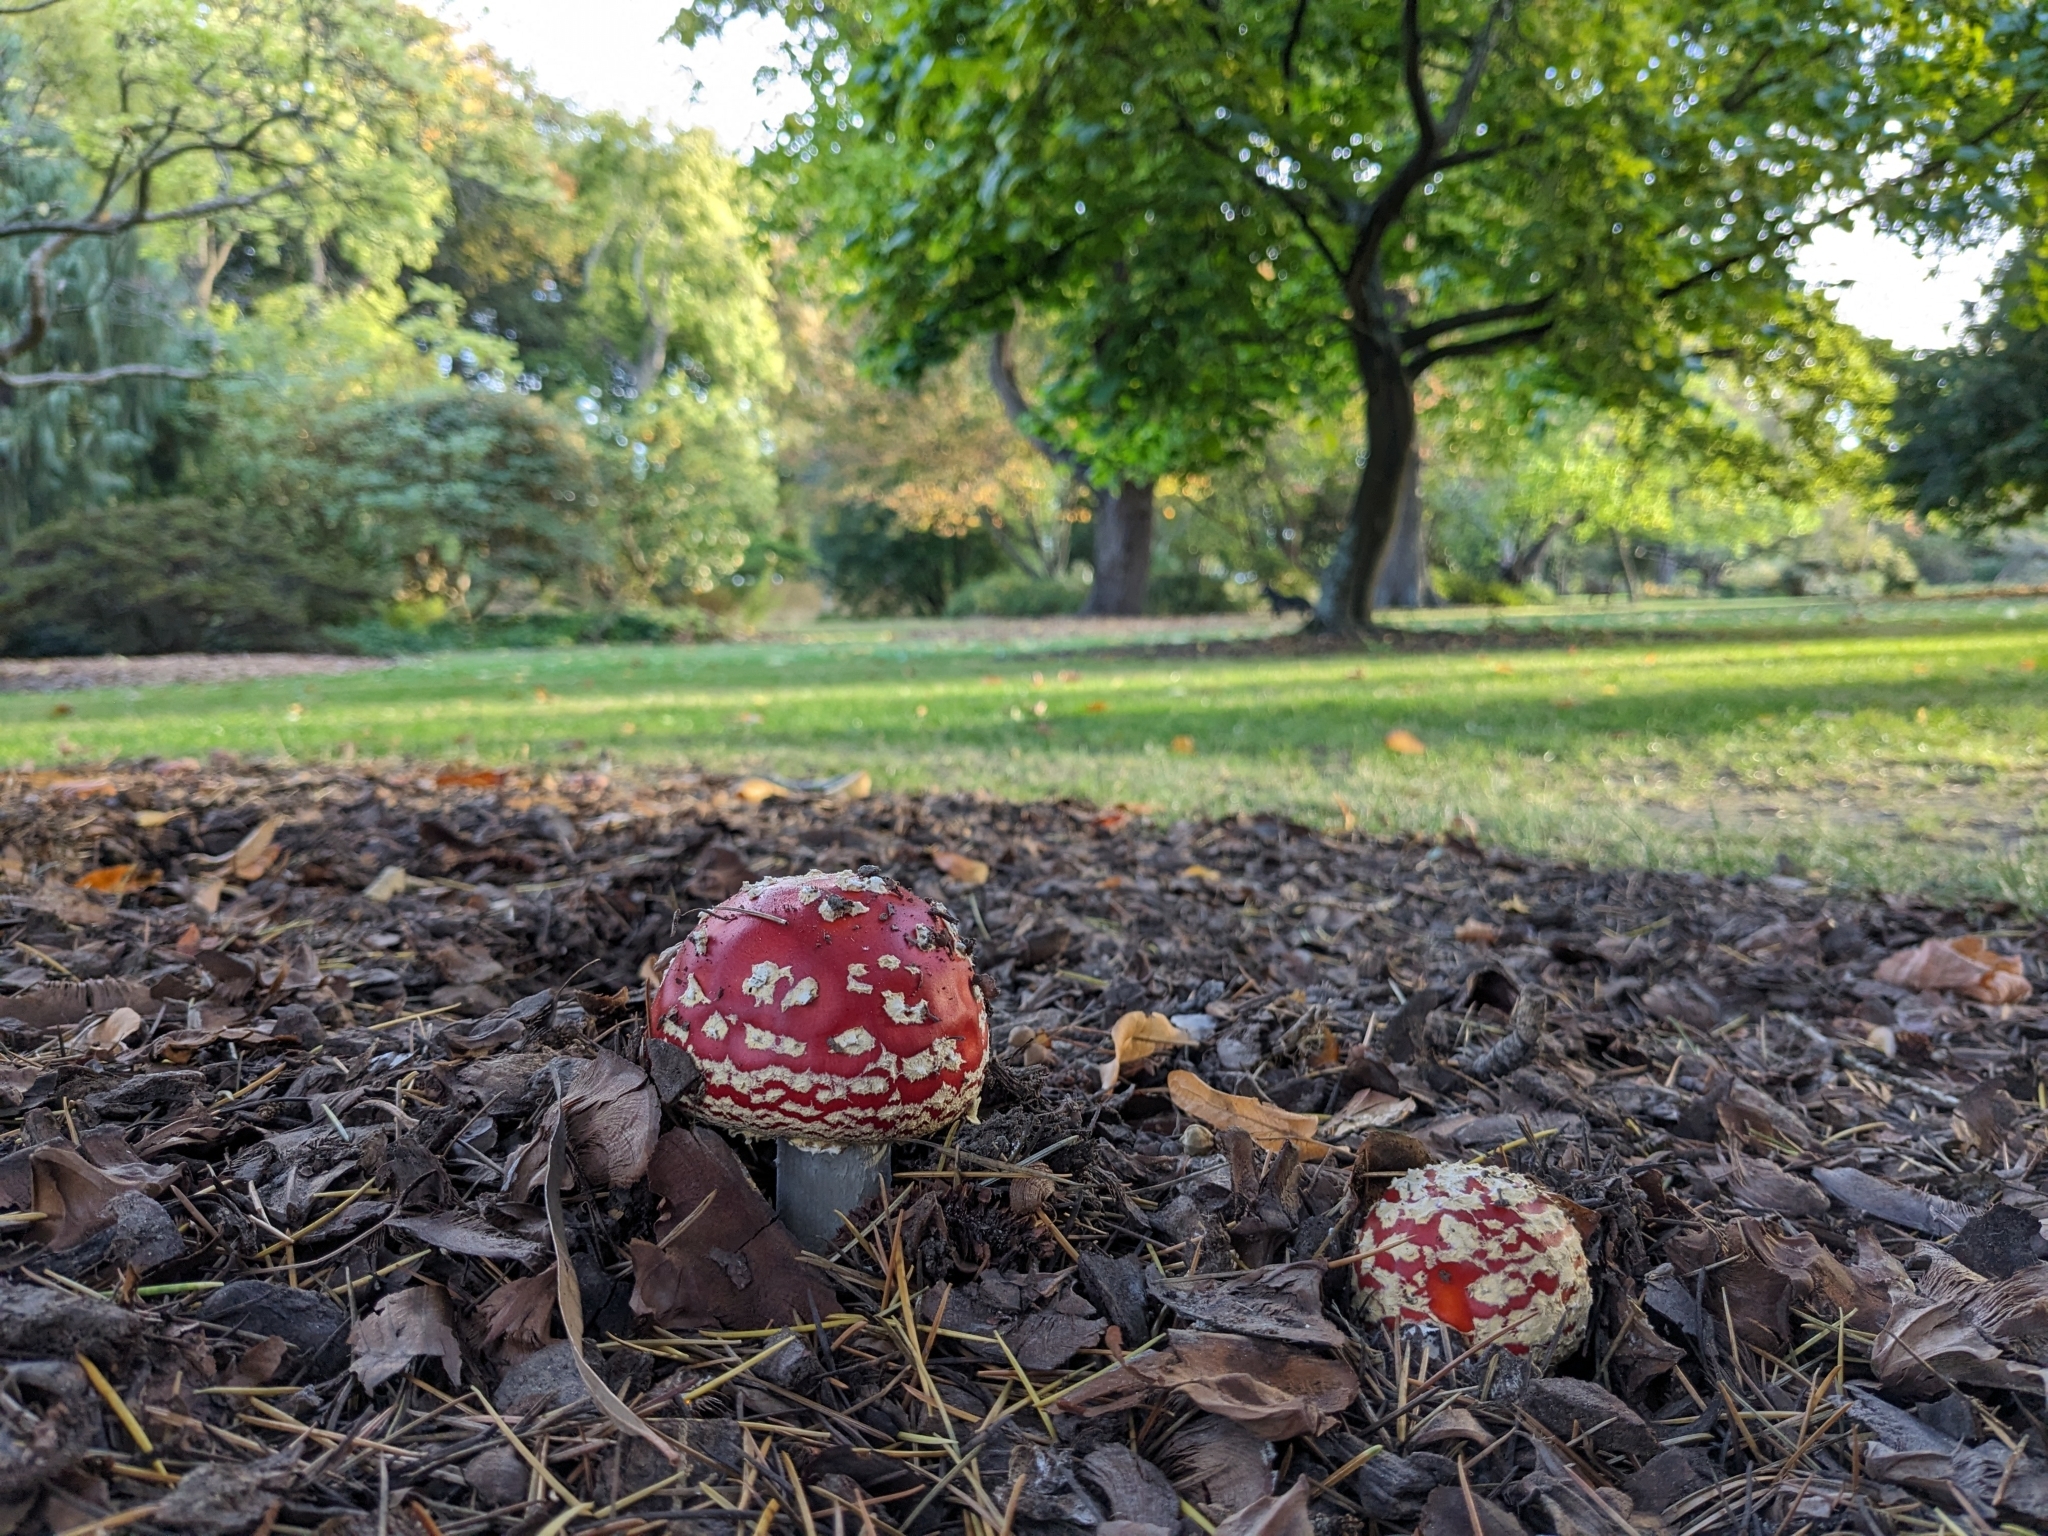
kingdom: Fungi
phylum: Basidiomycota
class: Agaricomycetes
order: Agaricales
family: Amanitaceae
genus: Amanita
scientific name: Amanita muscaria
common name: Fly agaric
